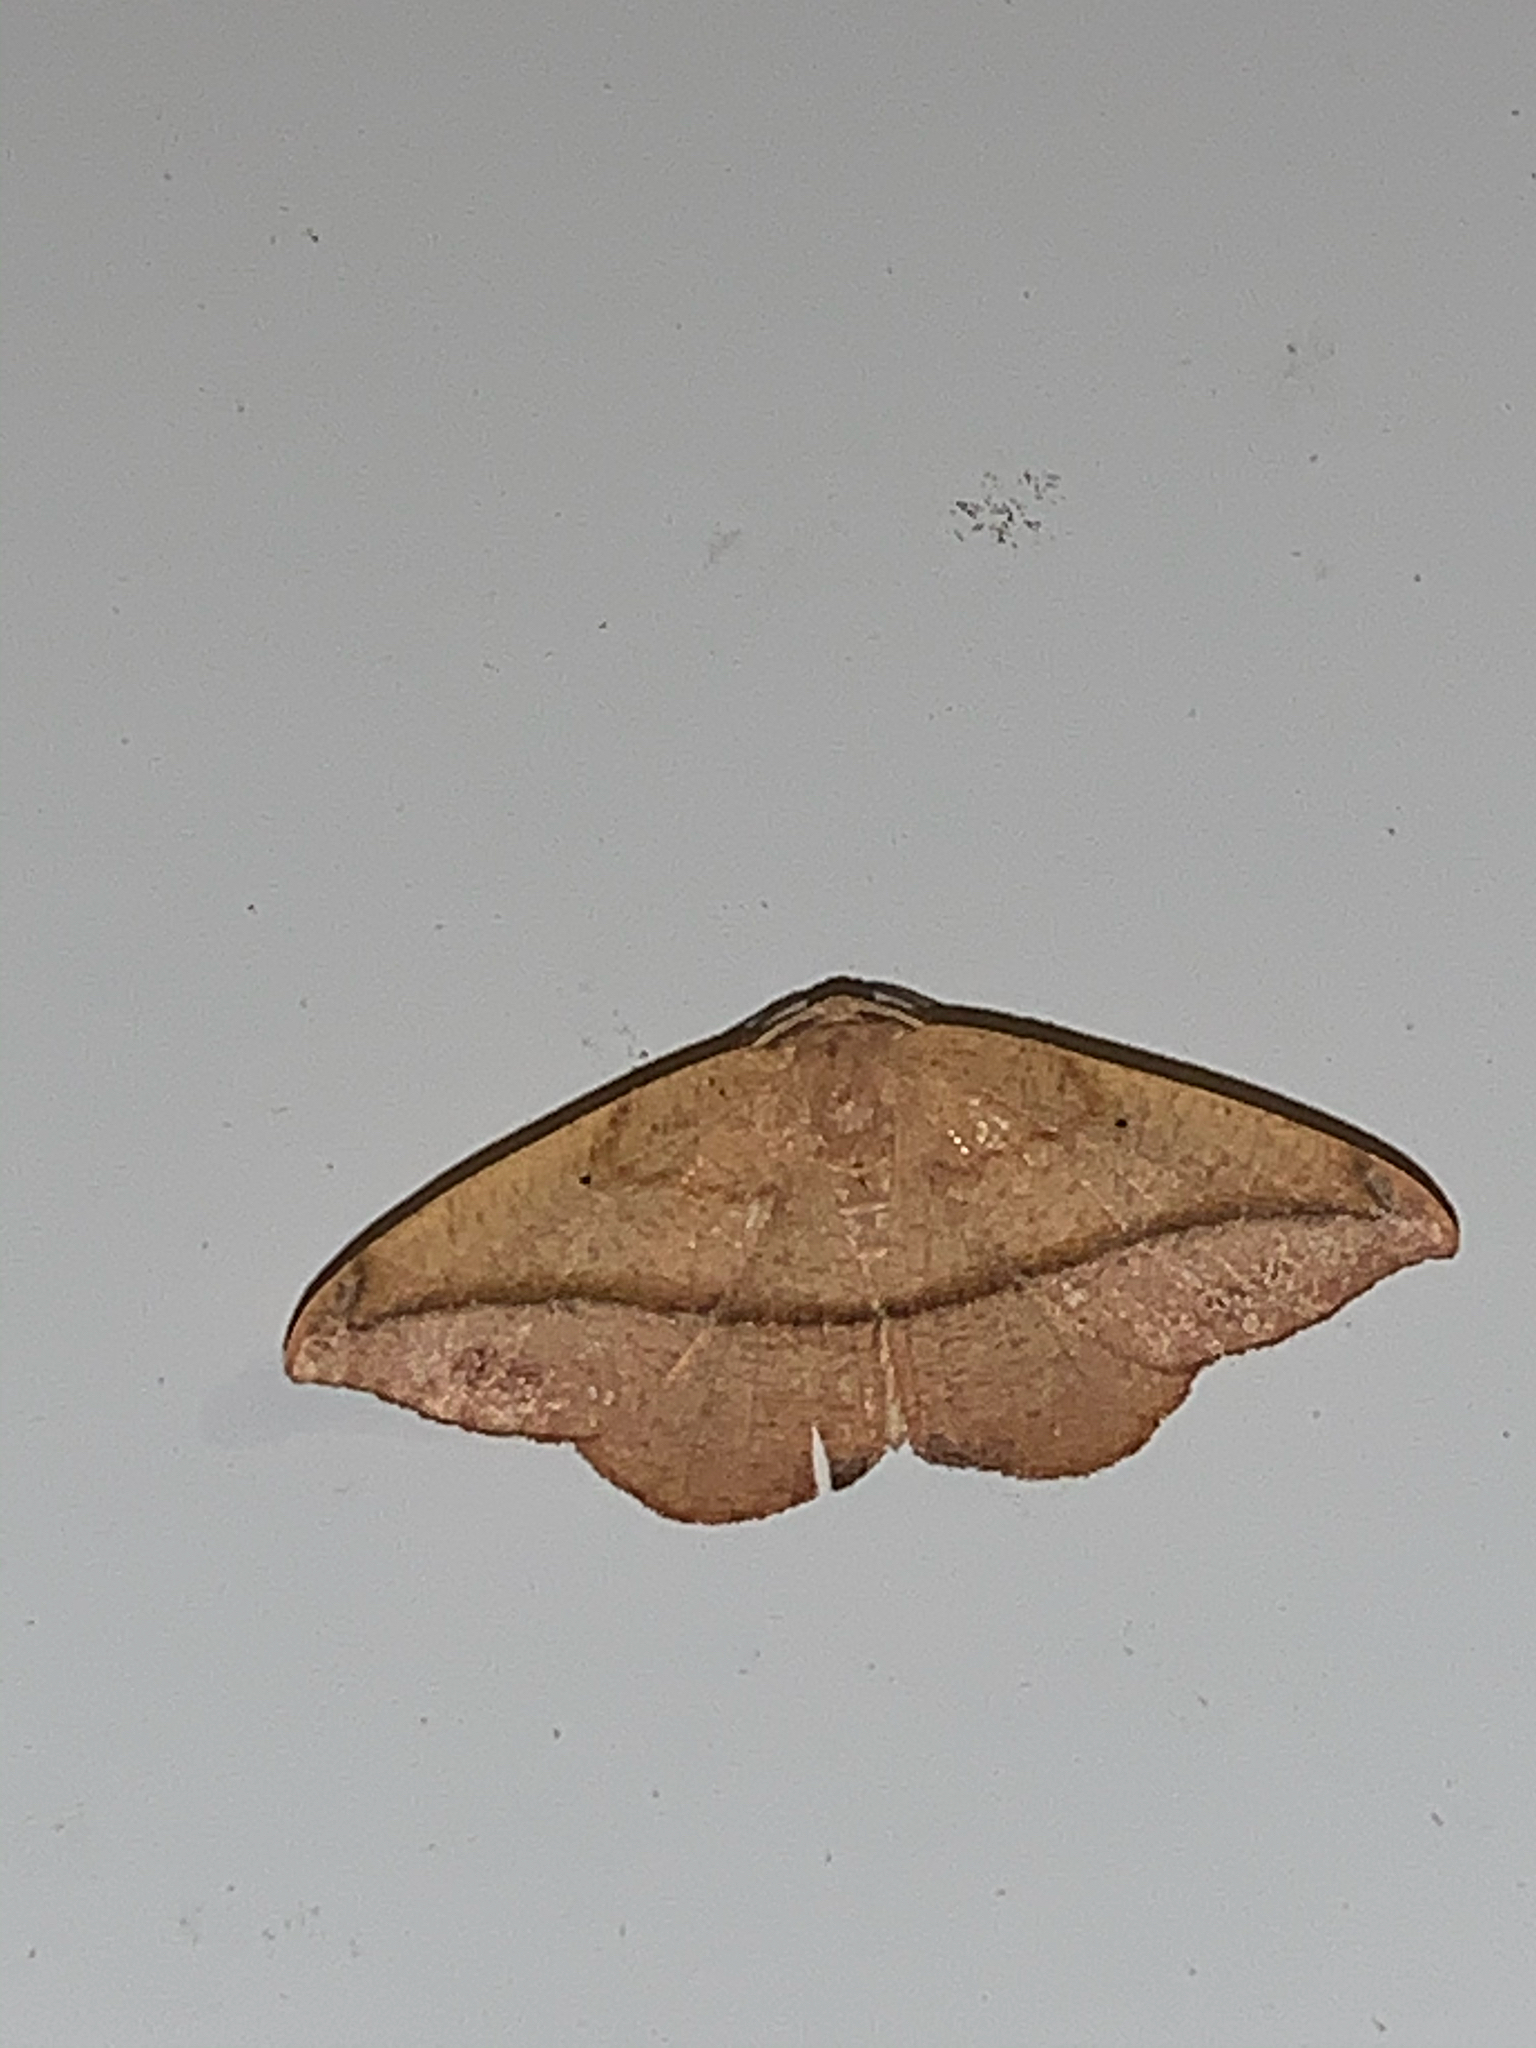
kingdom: Animalia
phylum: Arthropoda
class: Insecta
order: Lepidoptera
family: Geometridae
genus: Patalene
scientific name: Patalene olyzonaria
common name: Juniper geometer moth
